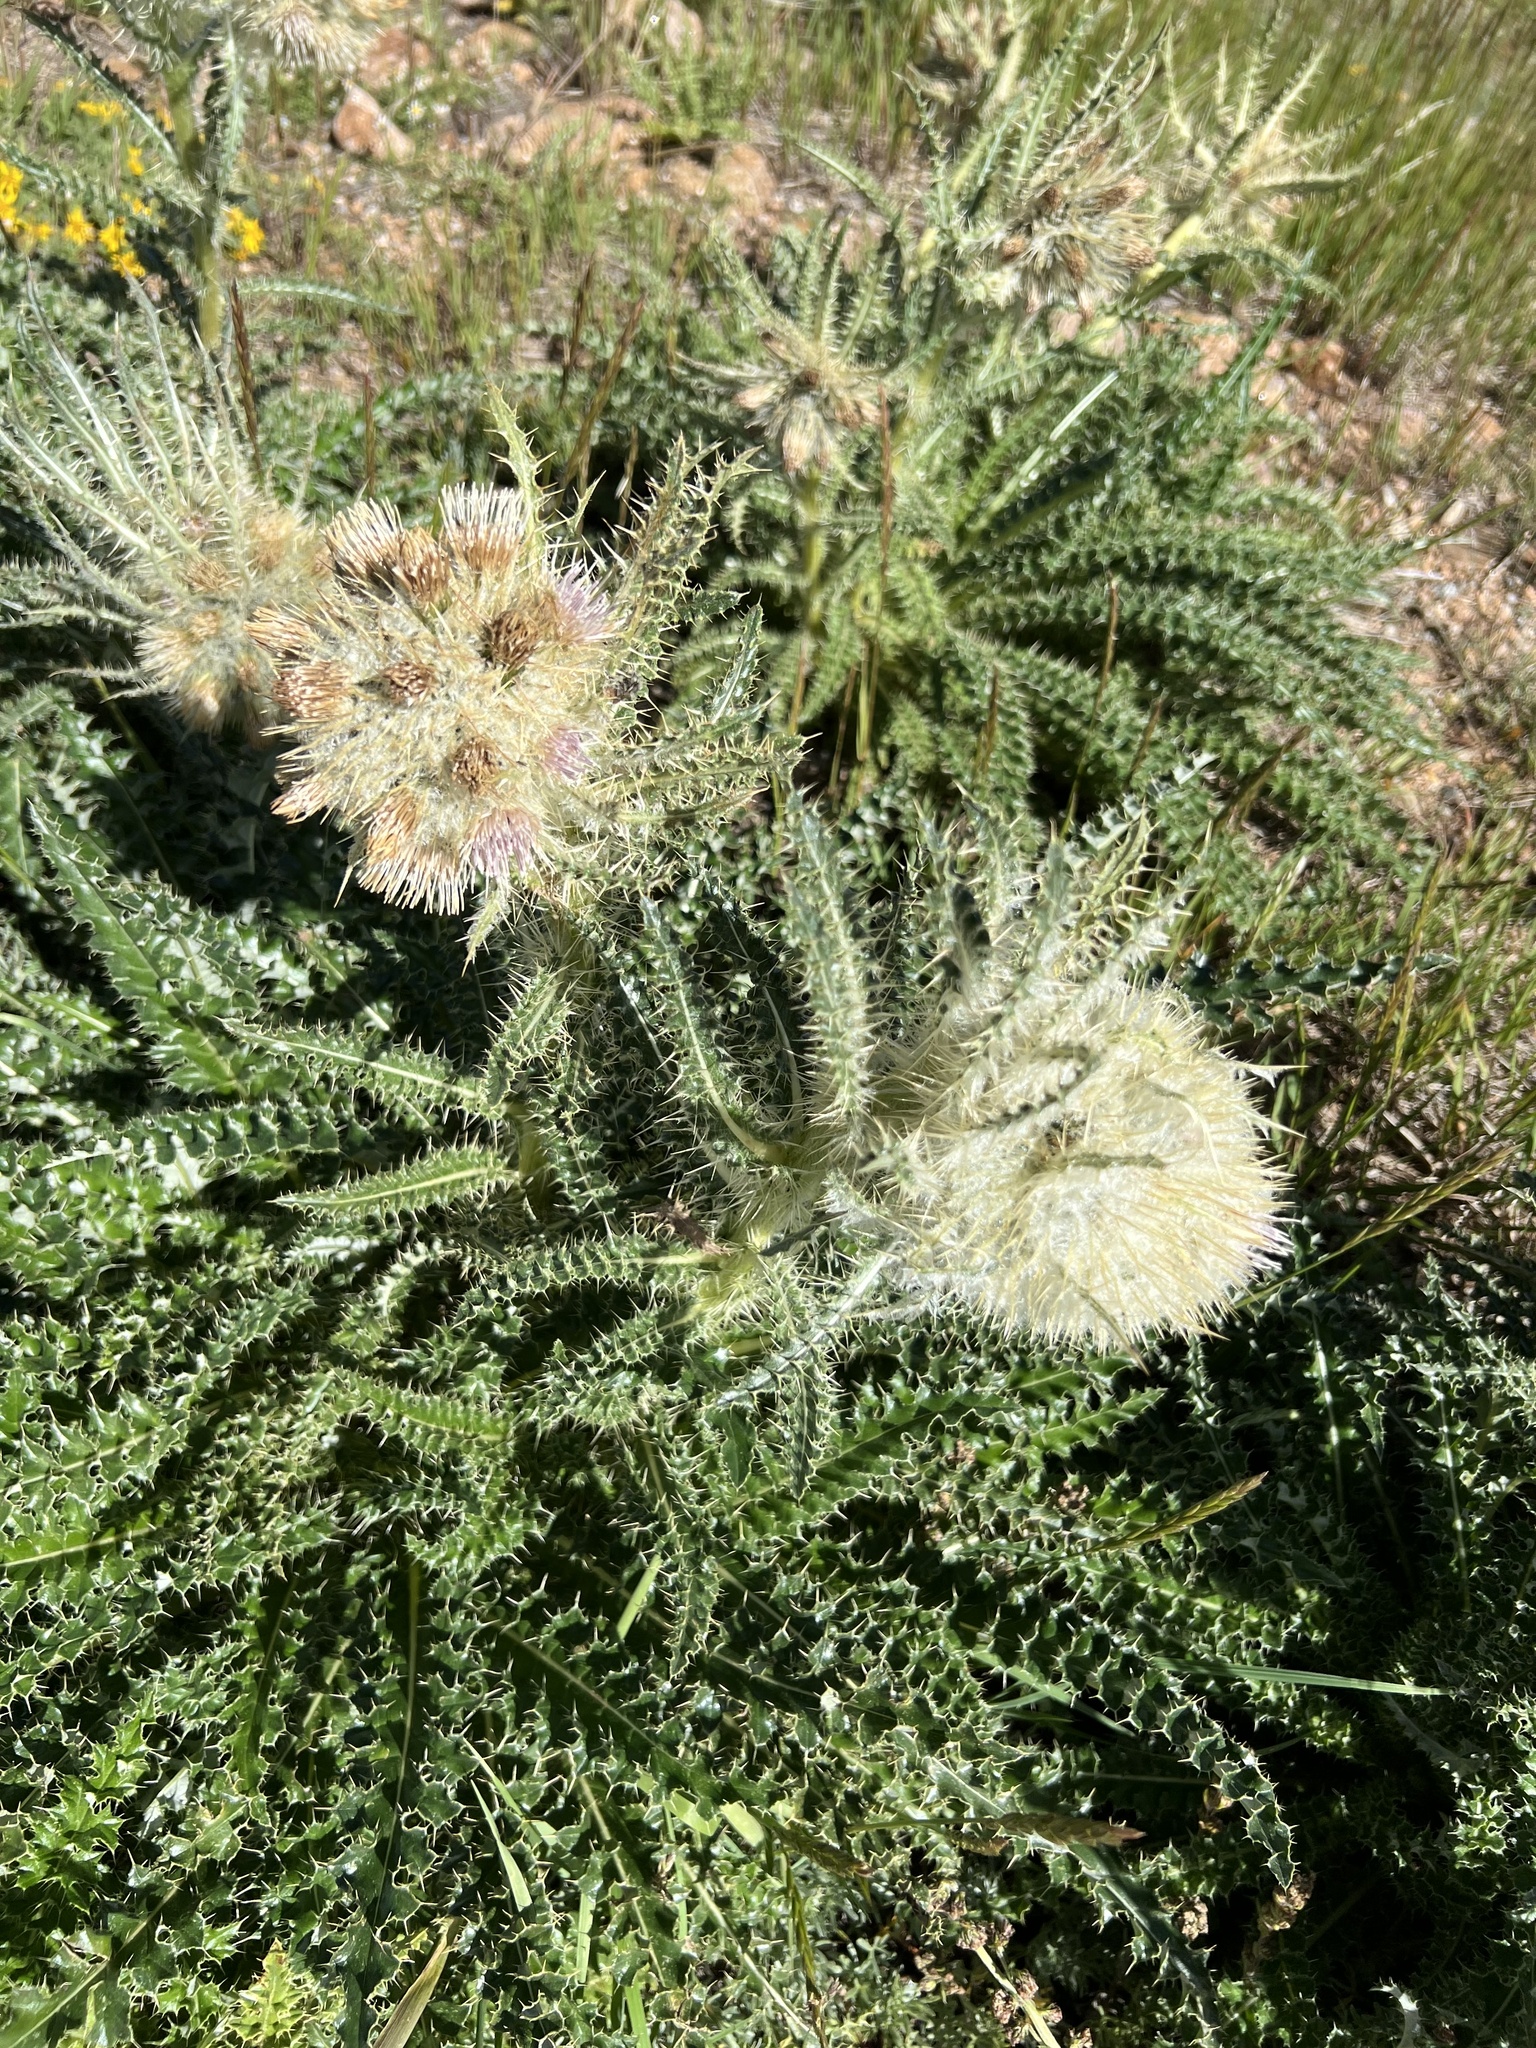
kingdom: Plantae
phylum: Tracheophyta
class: Magnoliopsida
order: Asterales
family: Asteraceae
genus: Cirsium
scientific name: Cirsium scopulorum
